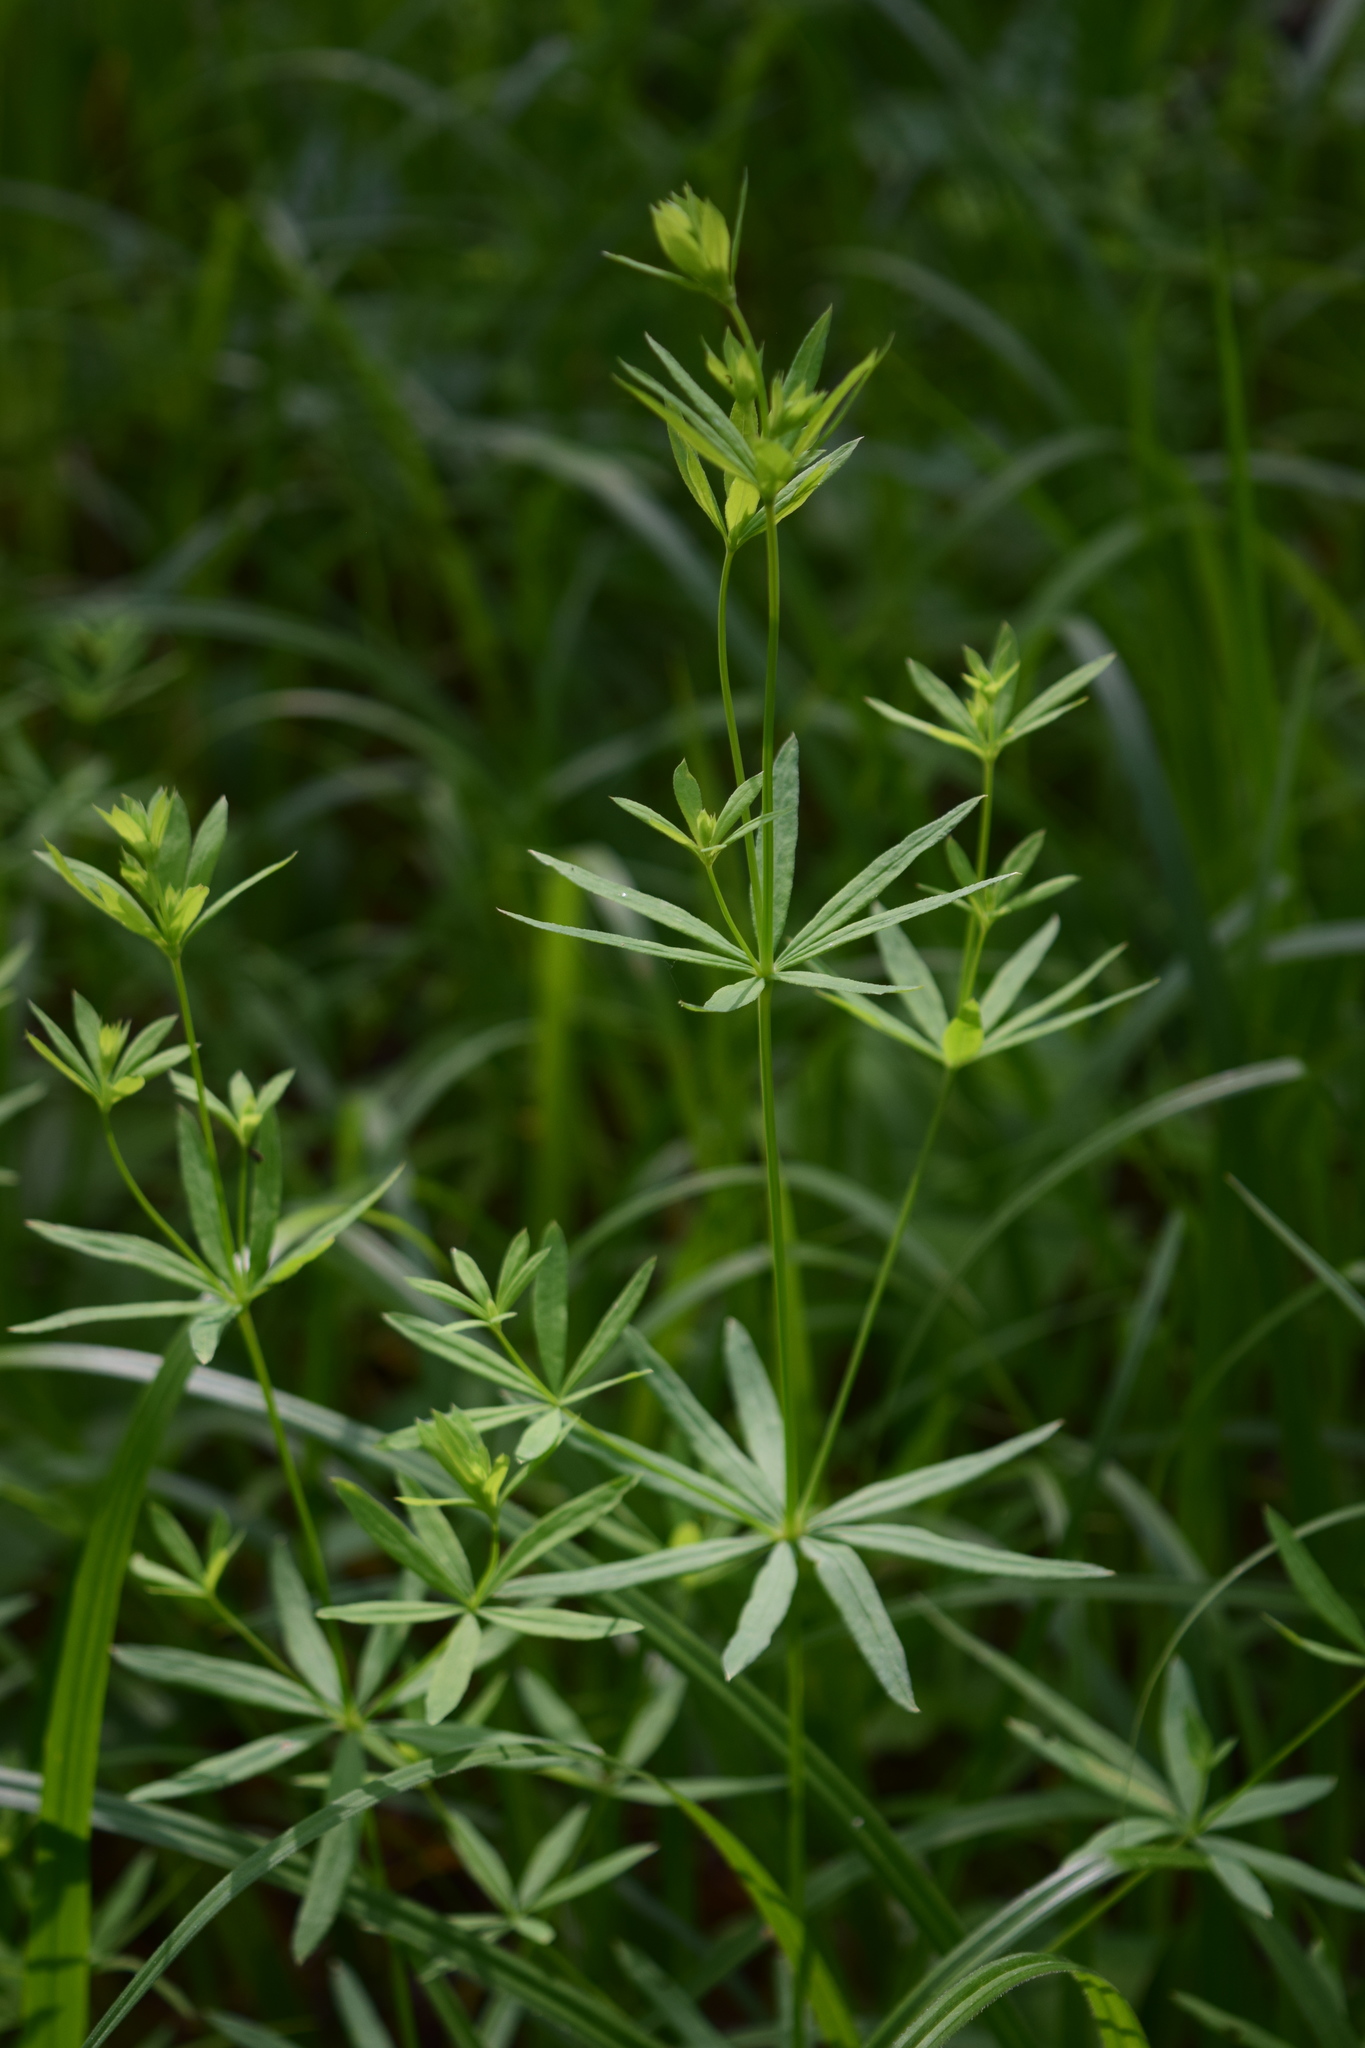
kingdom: Plantae
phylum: Tracheophyta
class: Magnoliopsida
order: Gentianales
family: Rubiaceae
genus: Galium
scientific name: Galium intermedium
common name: Bedstraw
